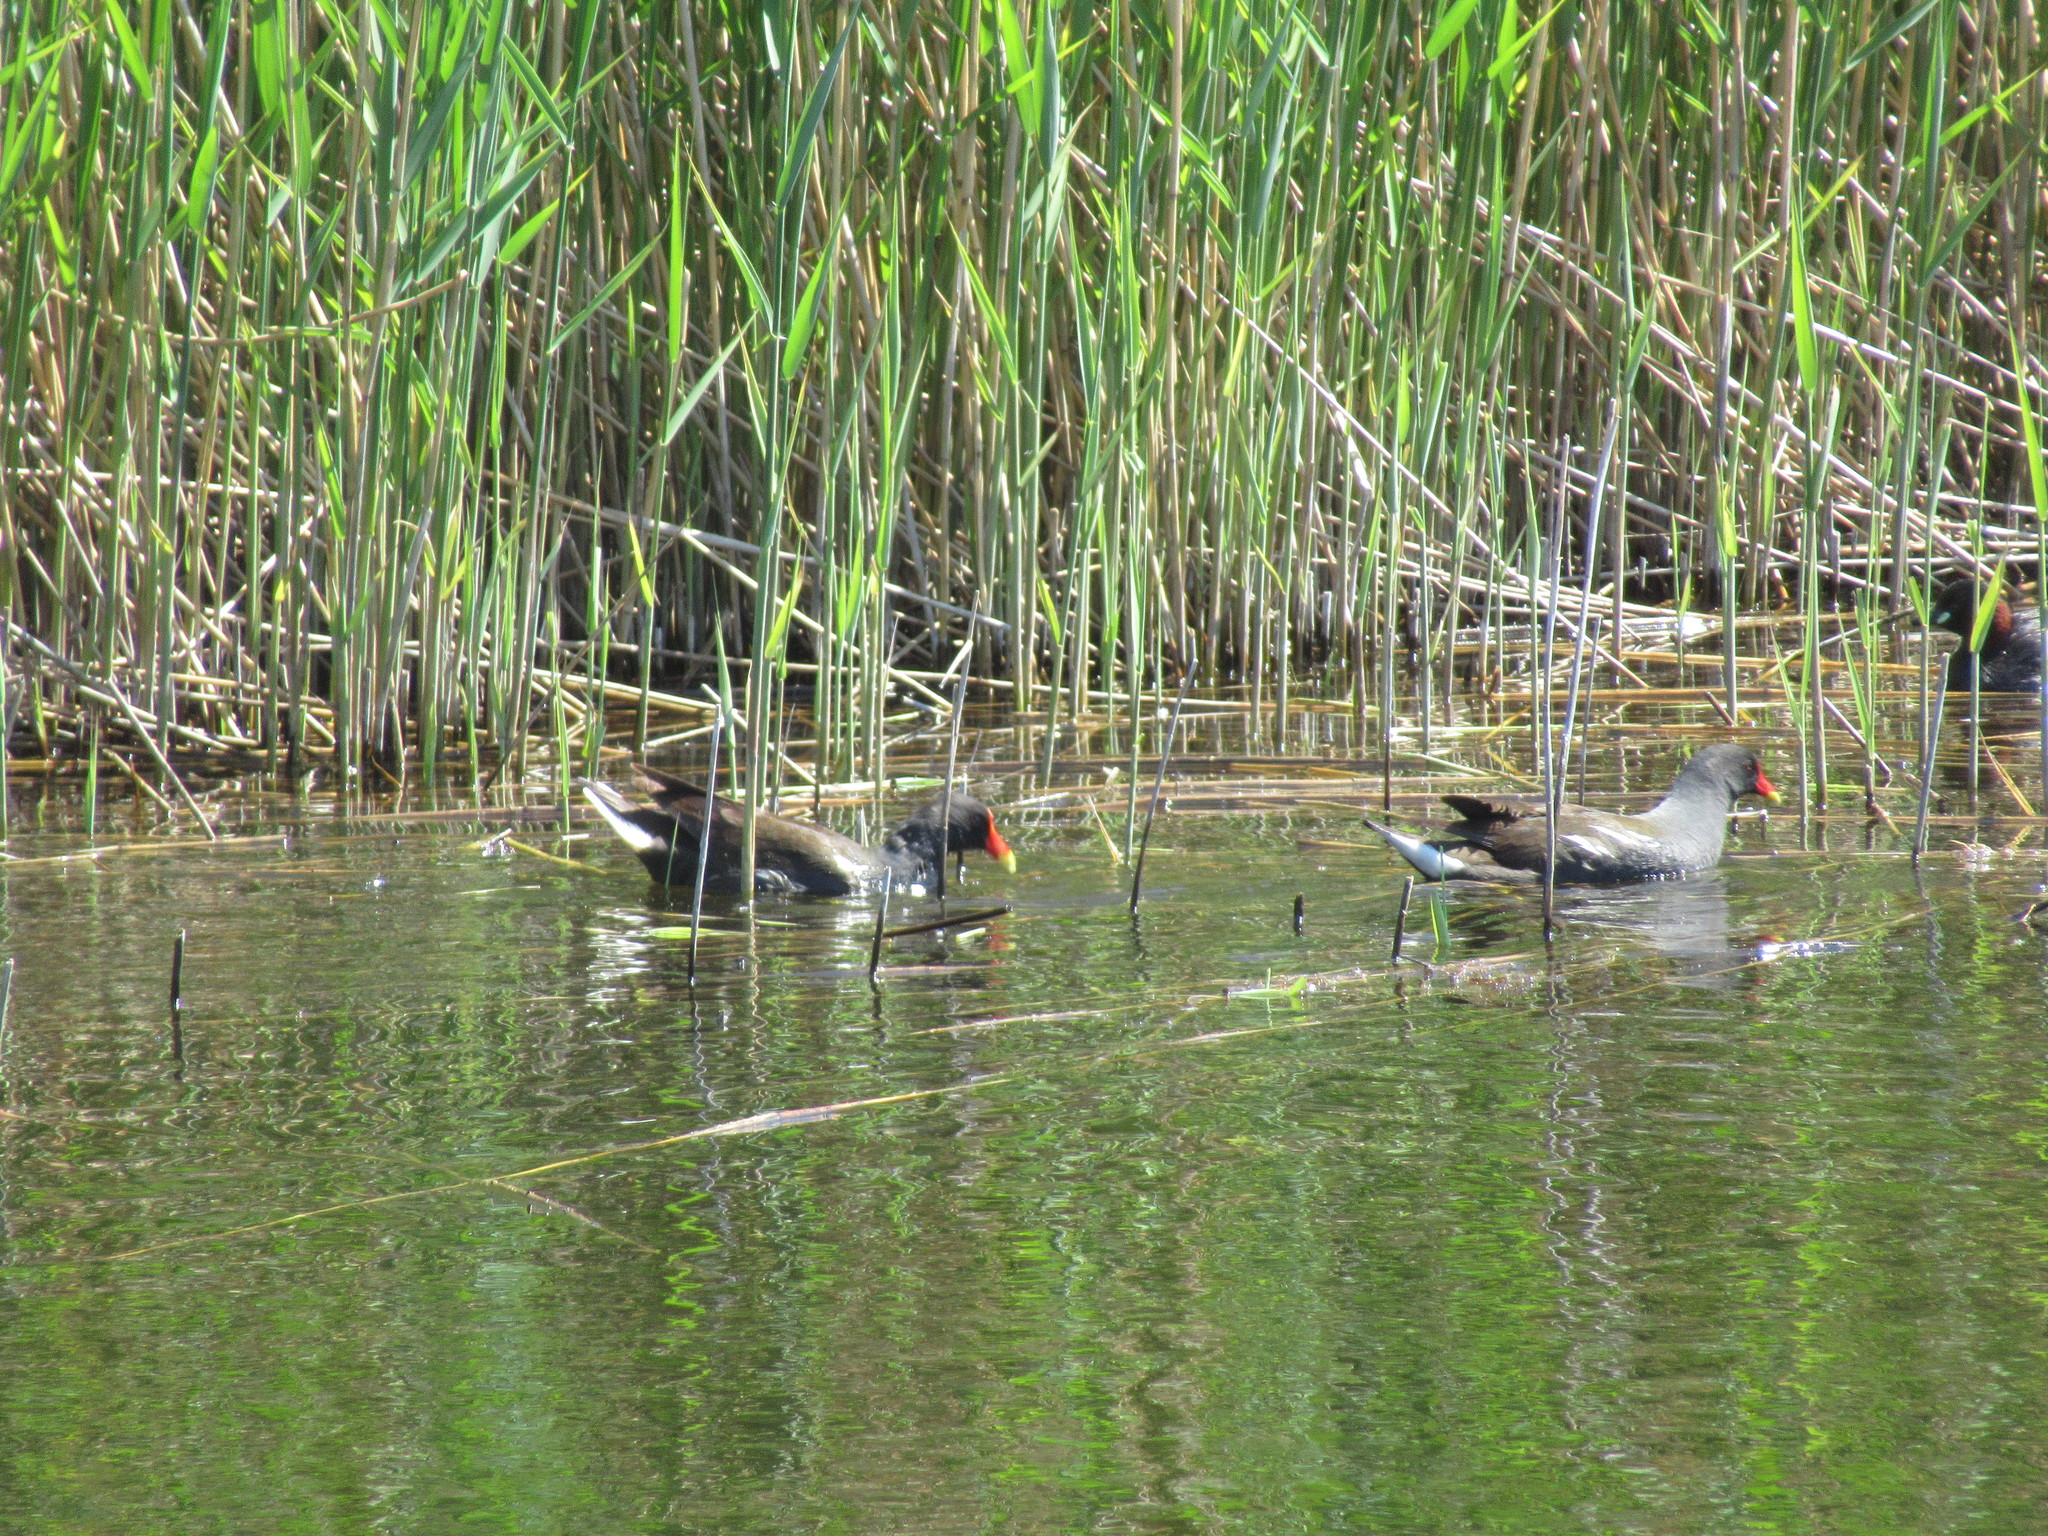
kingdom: Animalia
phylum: Chordata
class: Aves
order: Gruiformes
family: Rallidae
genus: Gallinula
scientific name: Gallinula chloropus
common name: Common moorhen
